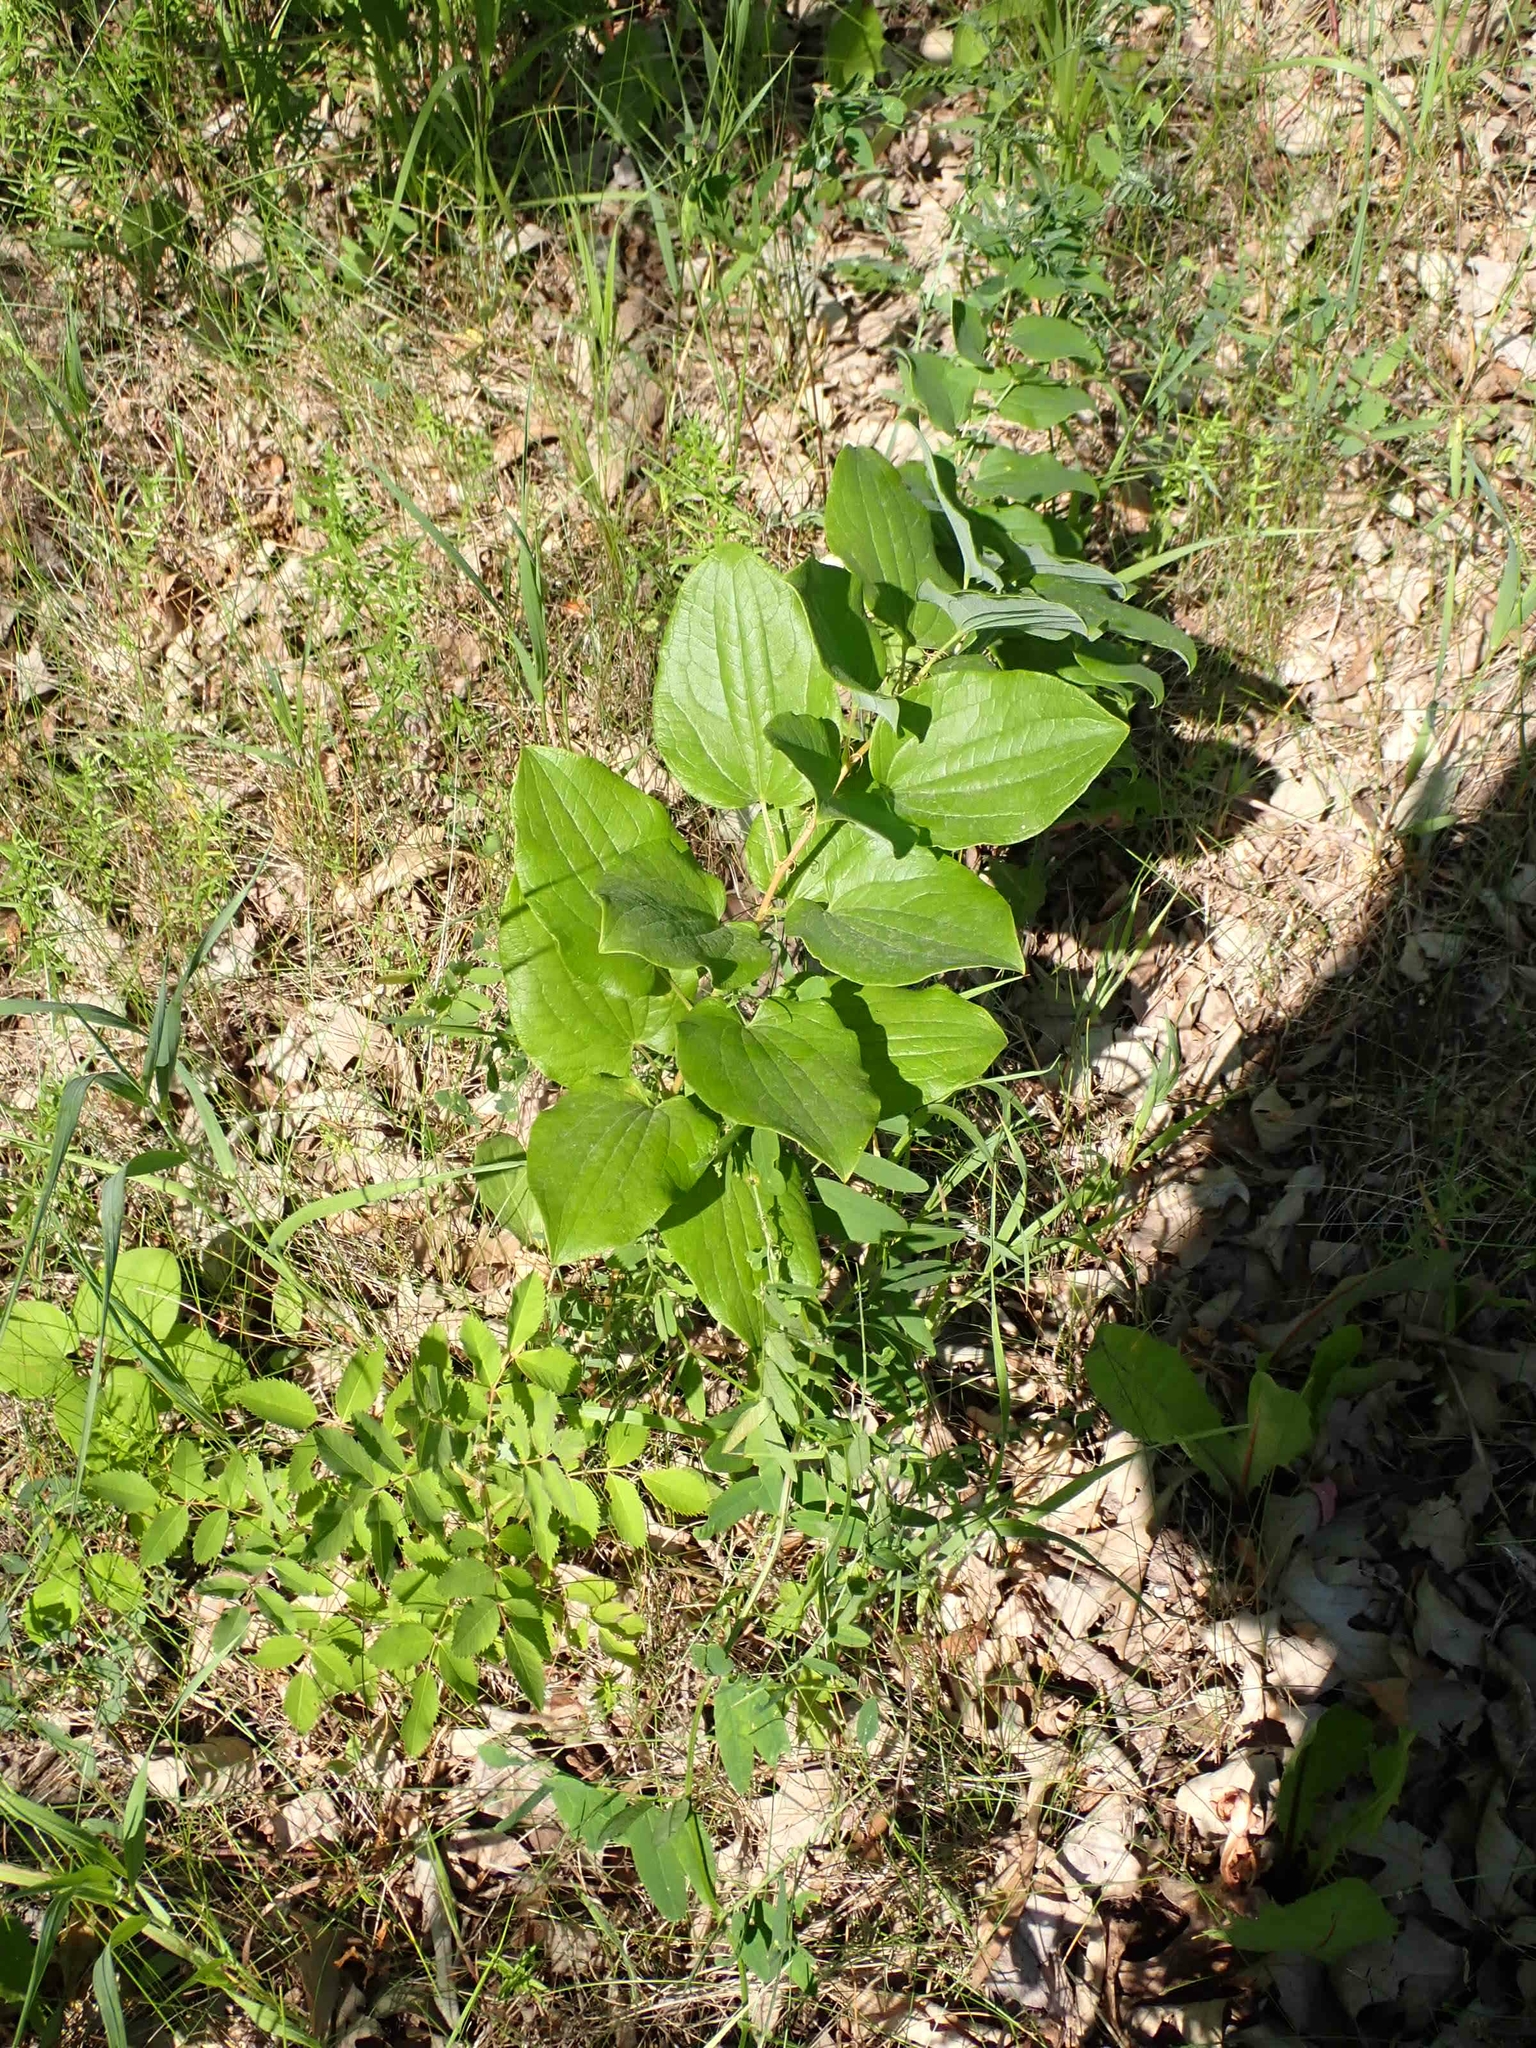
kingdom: Plantae
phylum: Tracheophyta
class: Liliopsida
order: Liliales
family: Smilacaceae
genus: Smilax
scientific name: Smilax lasioneura
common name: Blue ridge carrionflower
